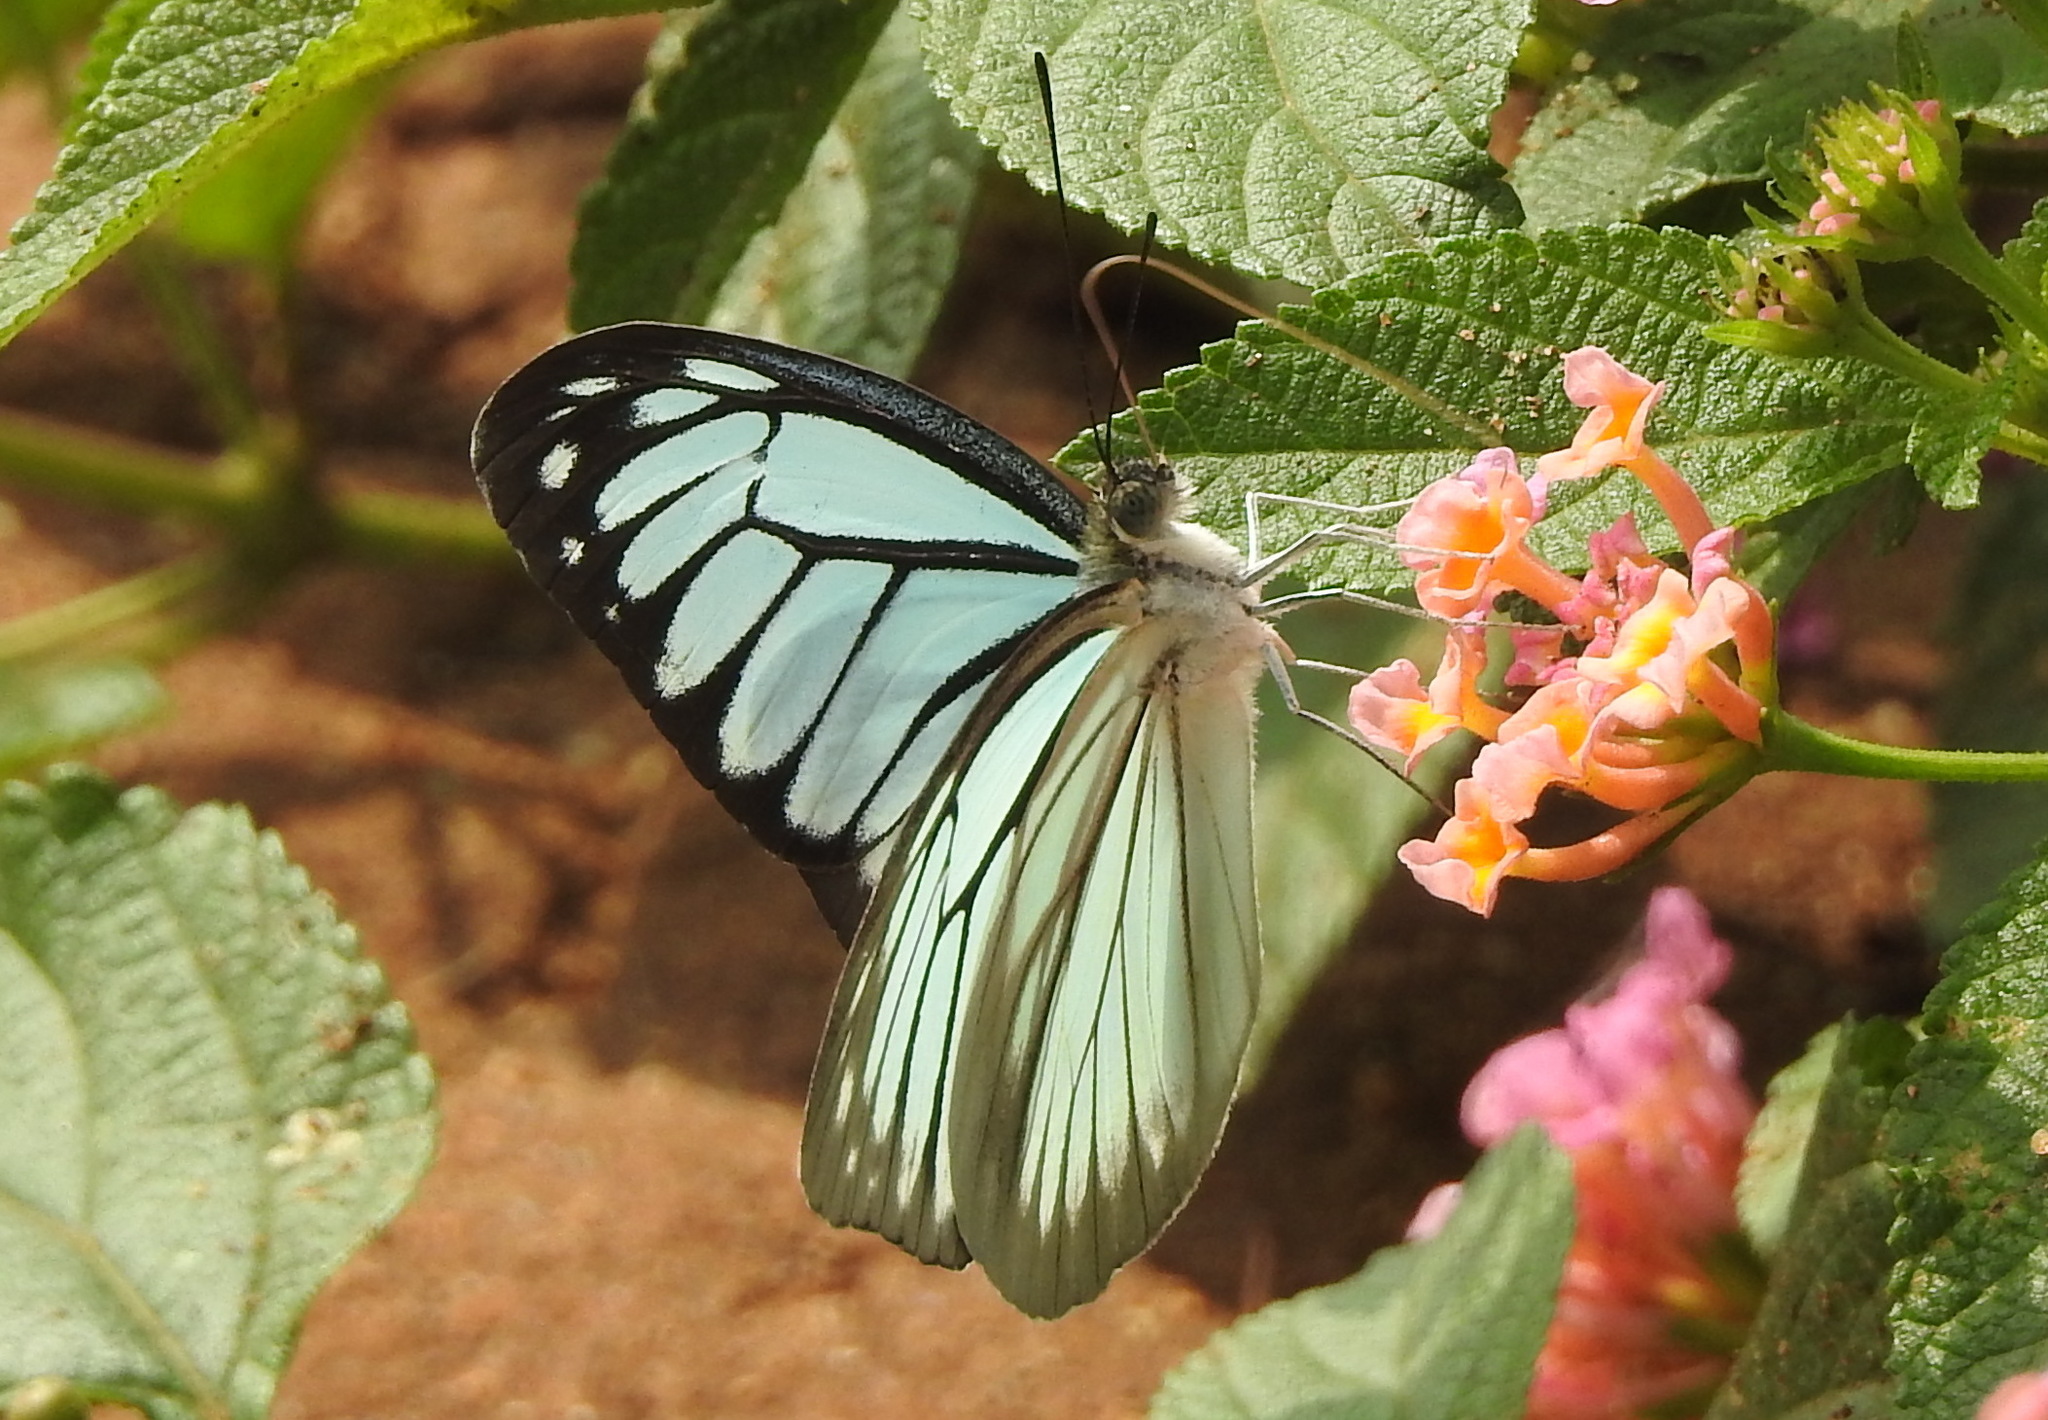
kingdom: Animalia
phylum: Arthropoda
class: Insecta
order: Lepidoptera
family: Pieridae
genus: Pareronia
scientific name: Pareronia hippia
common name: Indian wanderer
